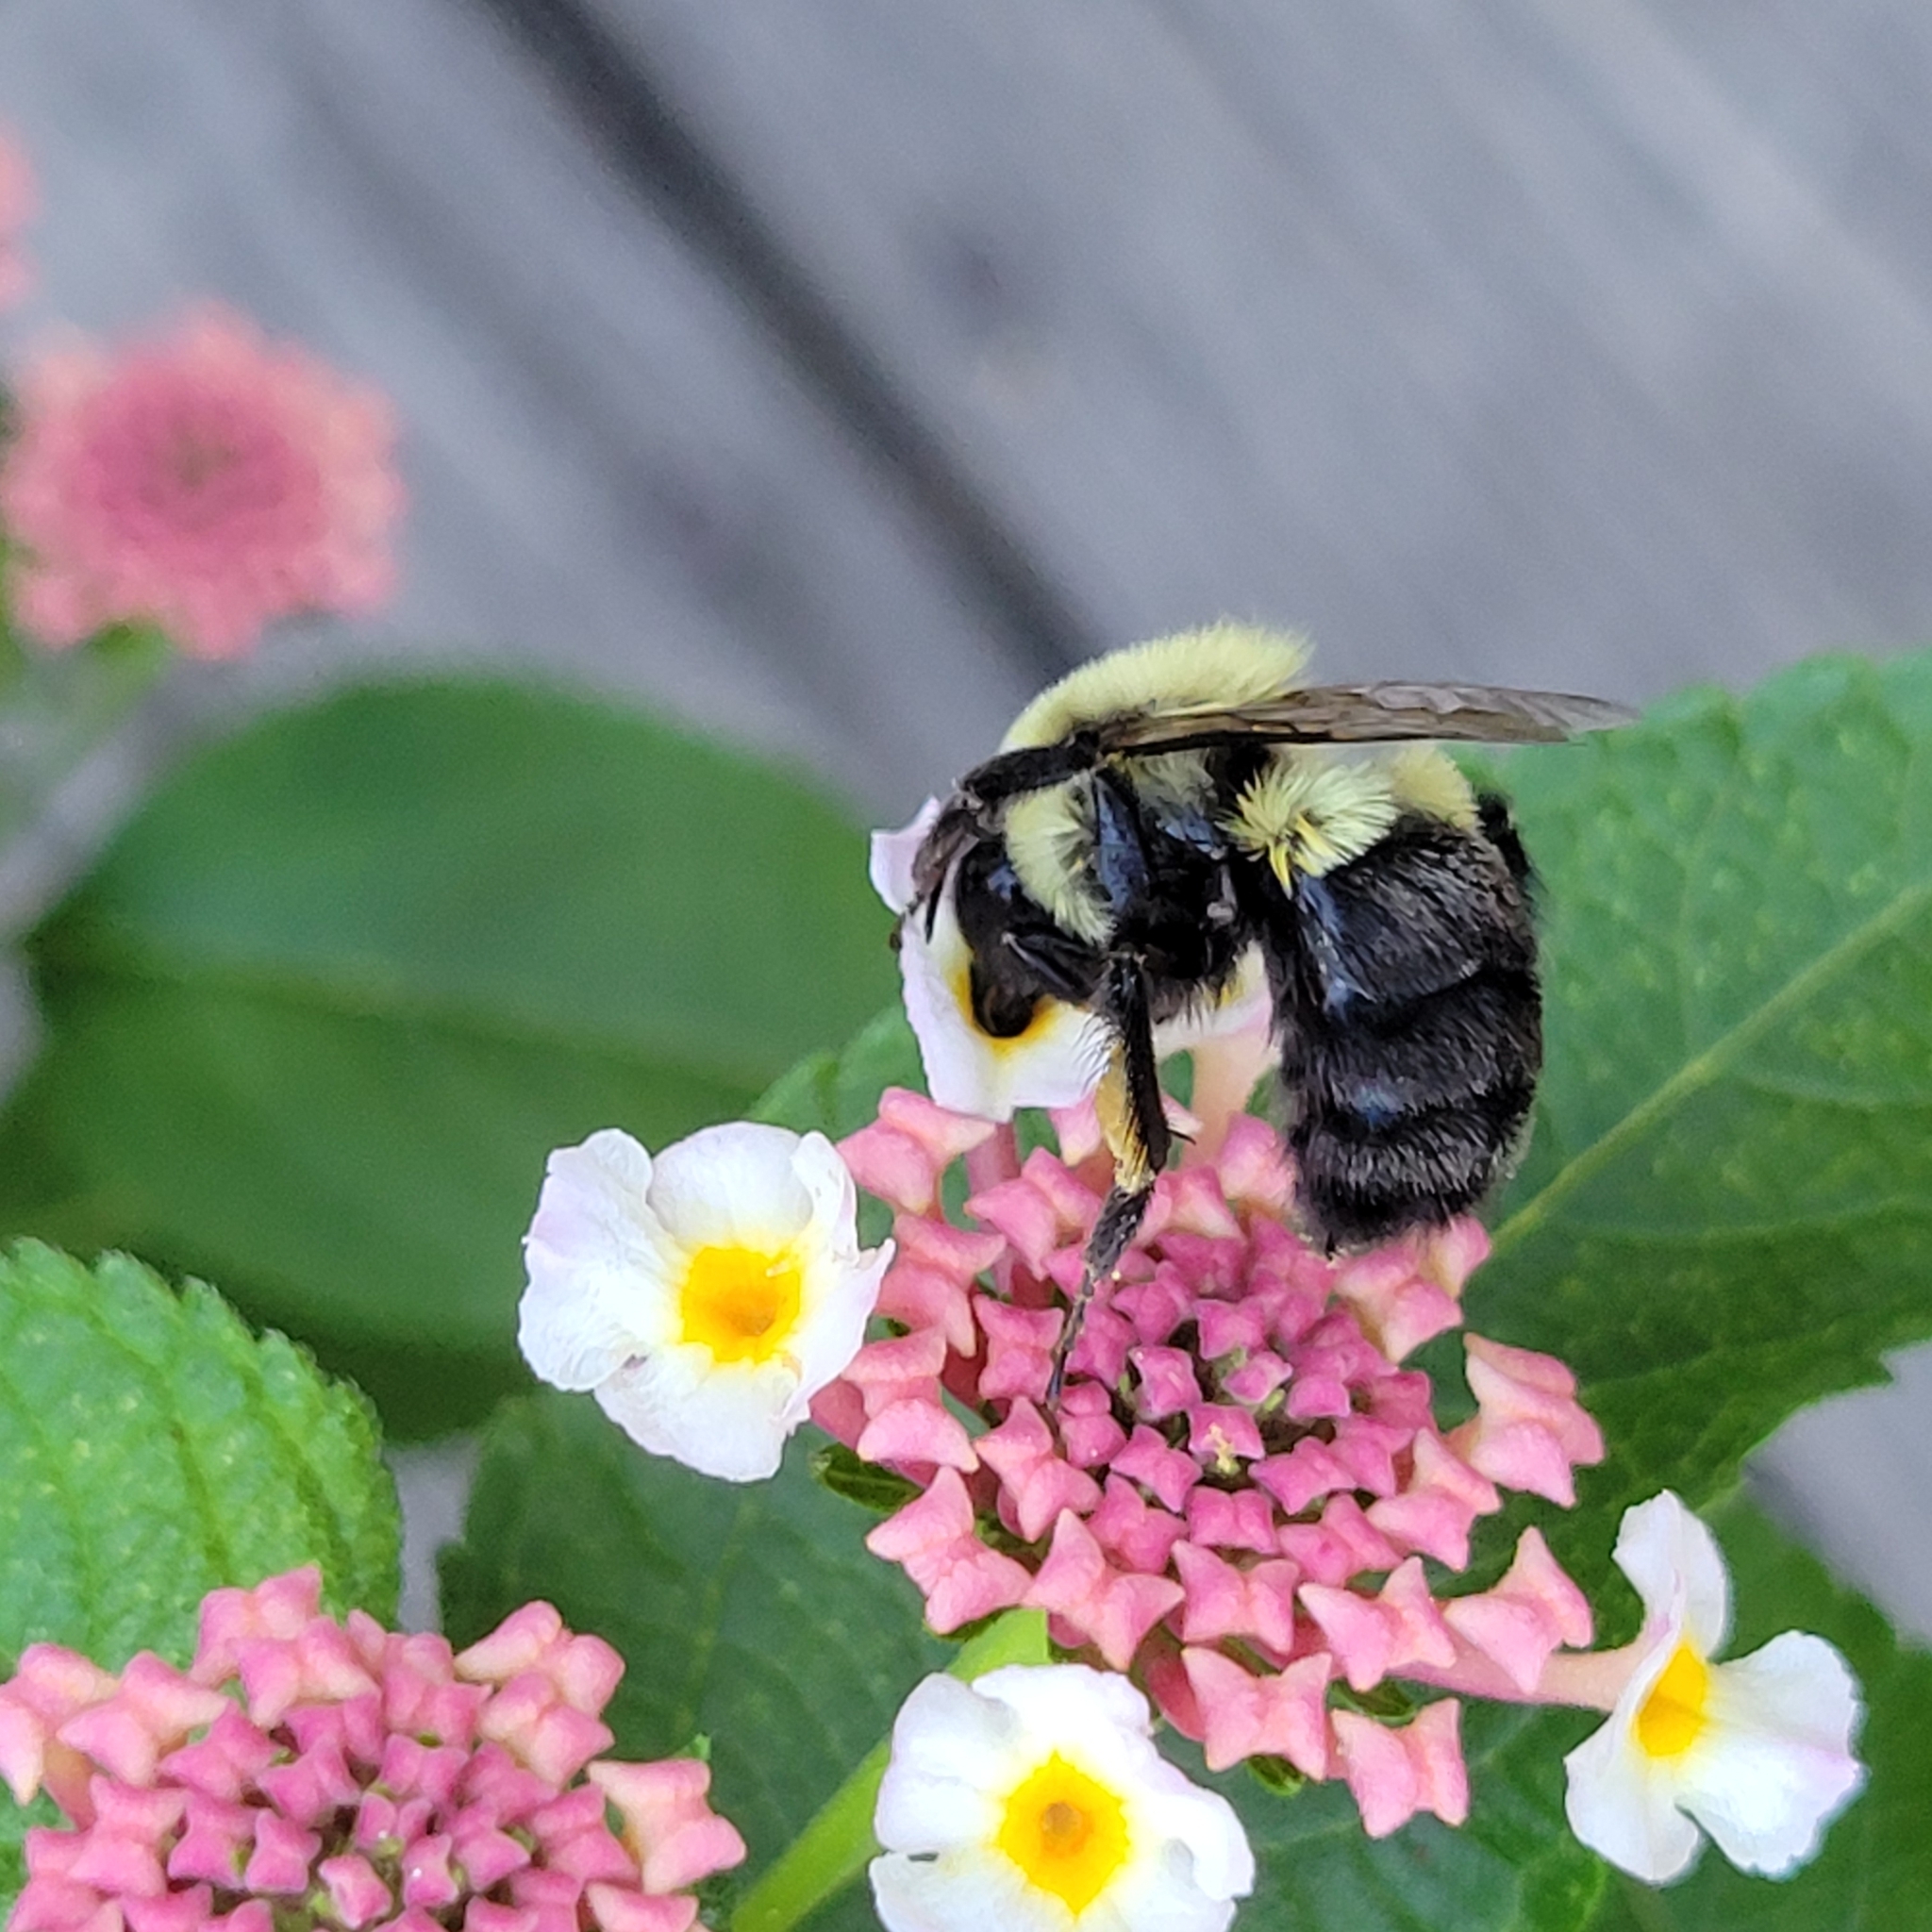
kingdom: Animalia
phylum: Arthropoda
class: Insecta
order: Hymenoptera
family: Apidae
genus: Bombus
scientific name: Bombus impatiens
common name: Common eastern bumble bee
